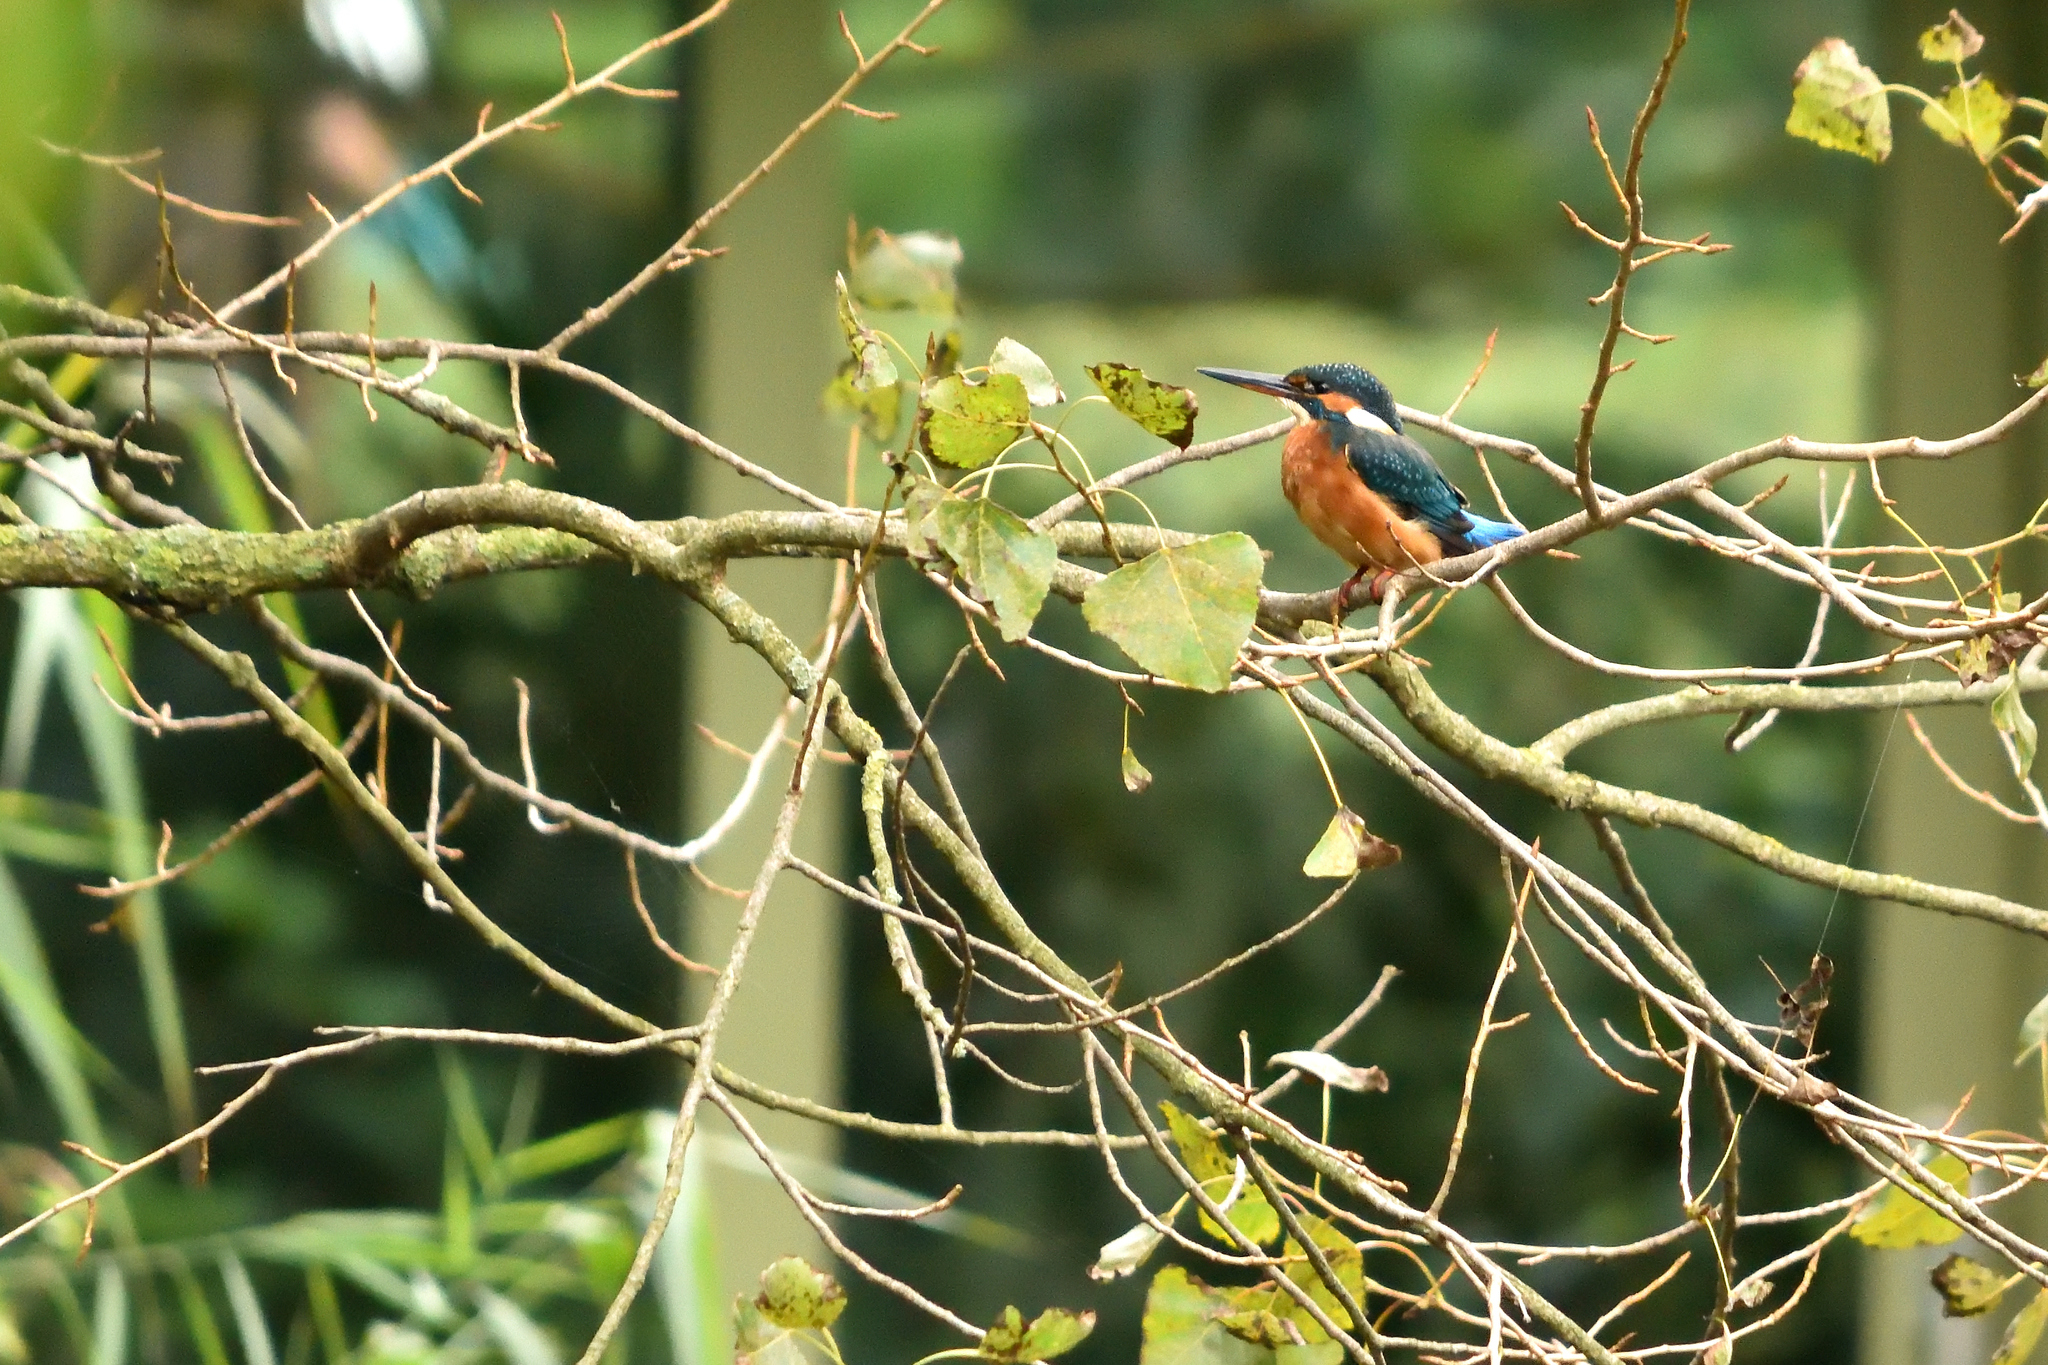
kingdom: Animalia
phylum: Chordata
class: Aves
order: Coraciiformes
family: Alcedinidae
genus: Alcedo
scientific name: Alcedo atthis
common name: Common kingfisher
